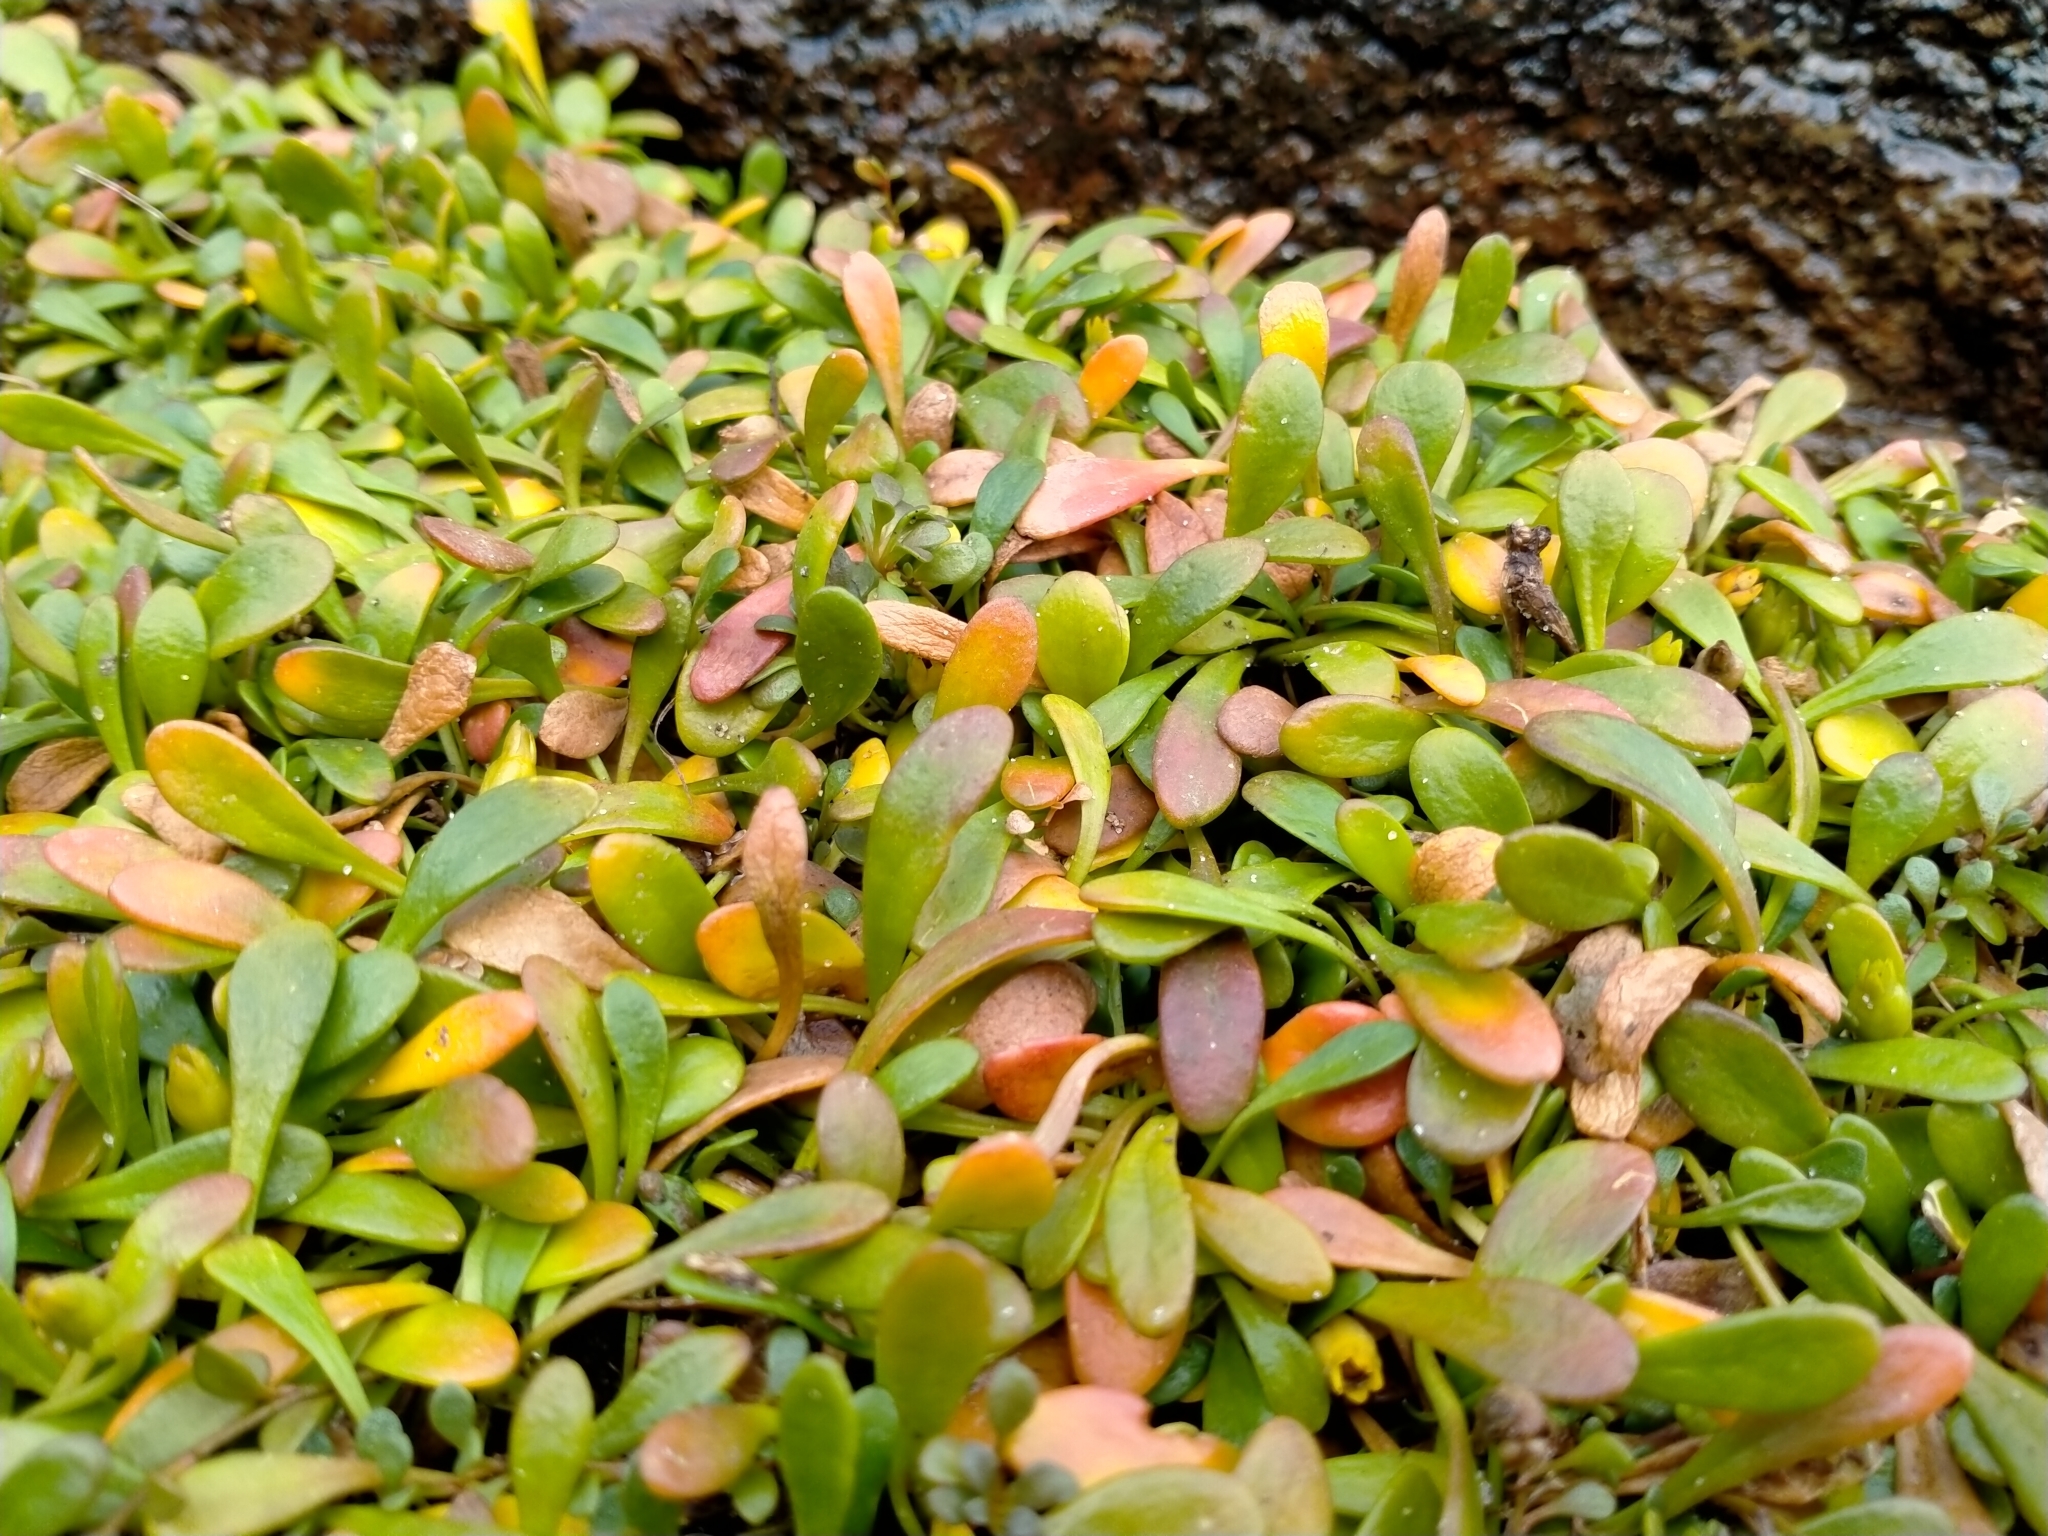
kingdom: Plantae
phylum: Tracheophyta
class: Magnoliopsida
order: Asterales
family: Goodeniaceae
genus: Goodenia
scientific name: Goodenia radicans
